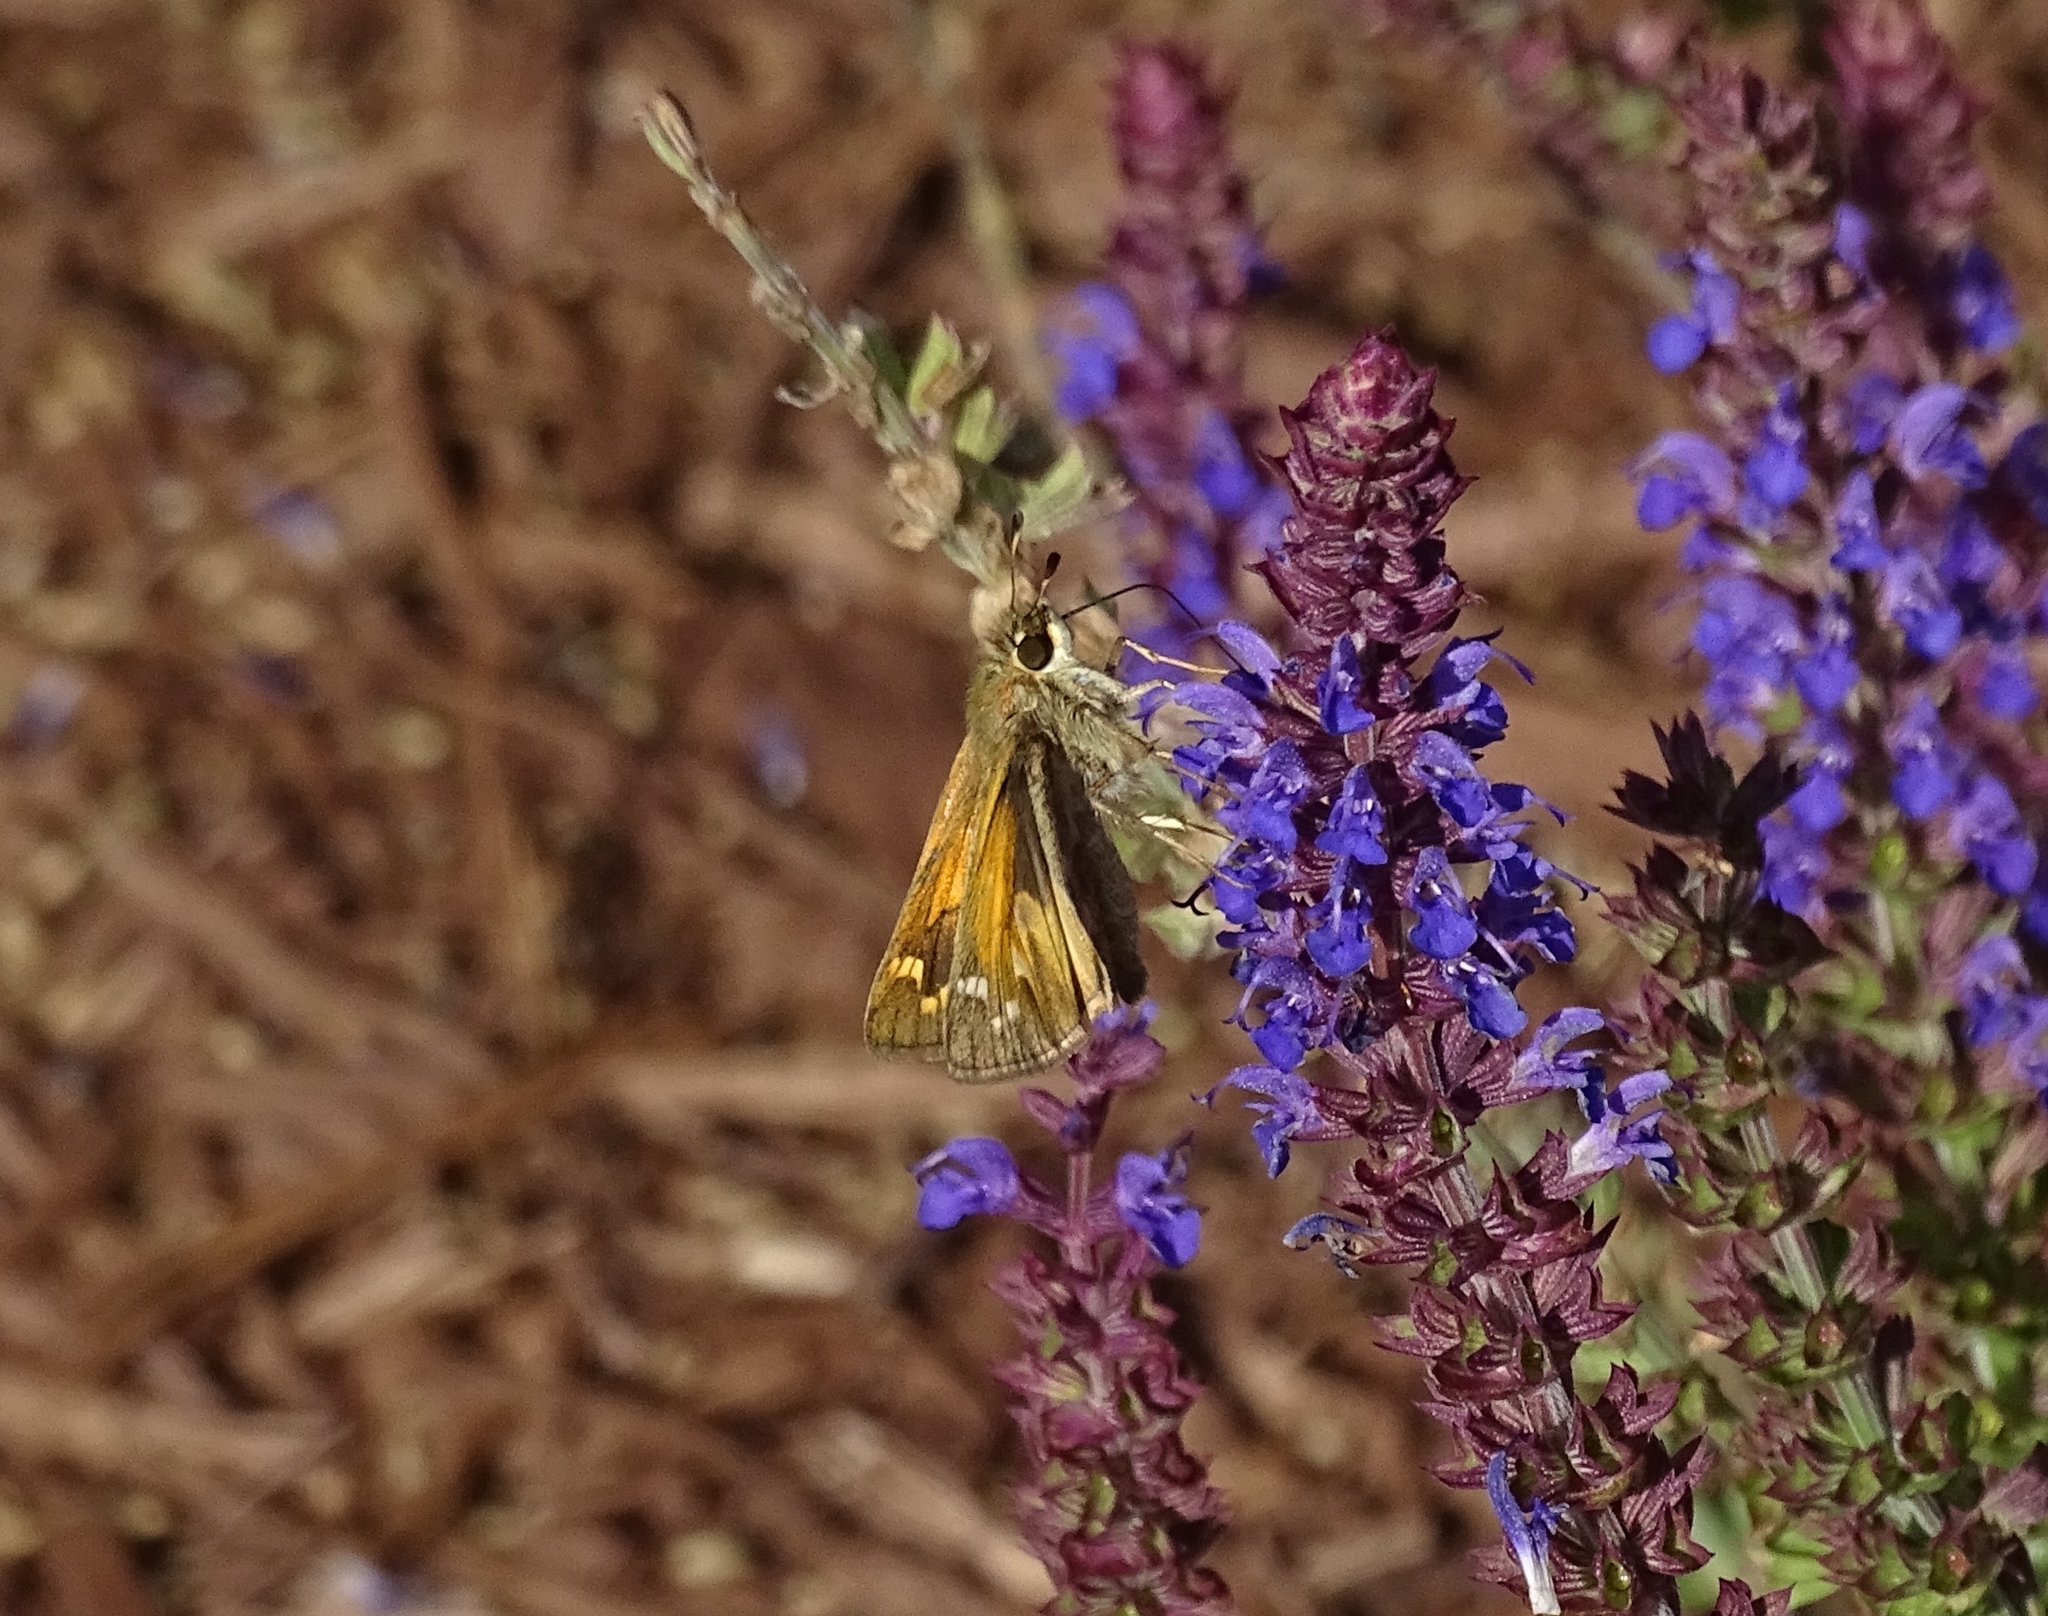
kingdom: Animalia
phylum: Arthropoda
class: Insecta
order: Lepidoptera
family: Hesperiidae
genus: Atalopedes
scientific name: Atalopedes
